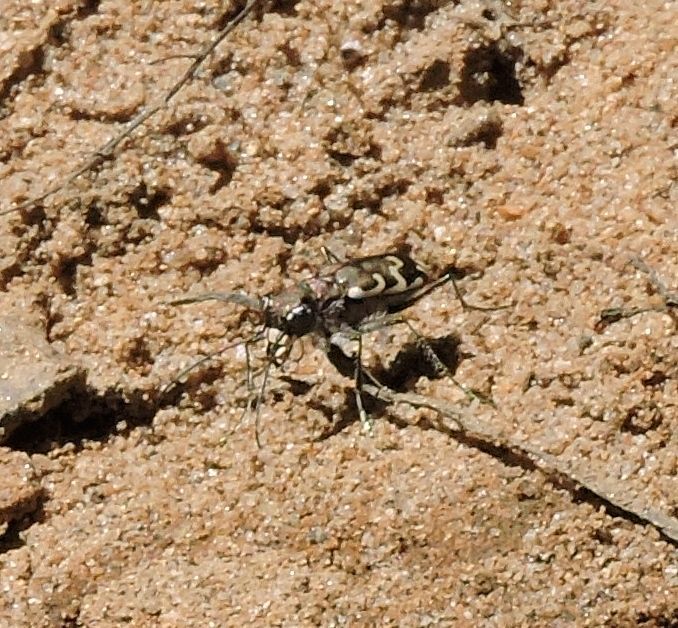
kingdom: Animalia
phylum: Arthropoda
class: Insecta
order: Coleoptera
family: Carabidae
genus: Cicindela
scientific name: Cicindela repanda
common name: Bronzed tiger beetle
